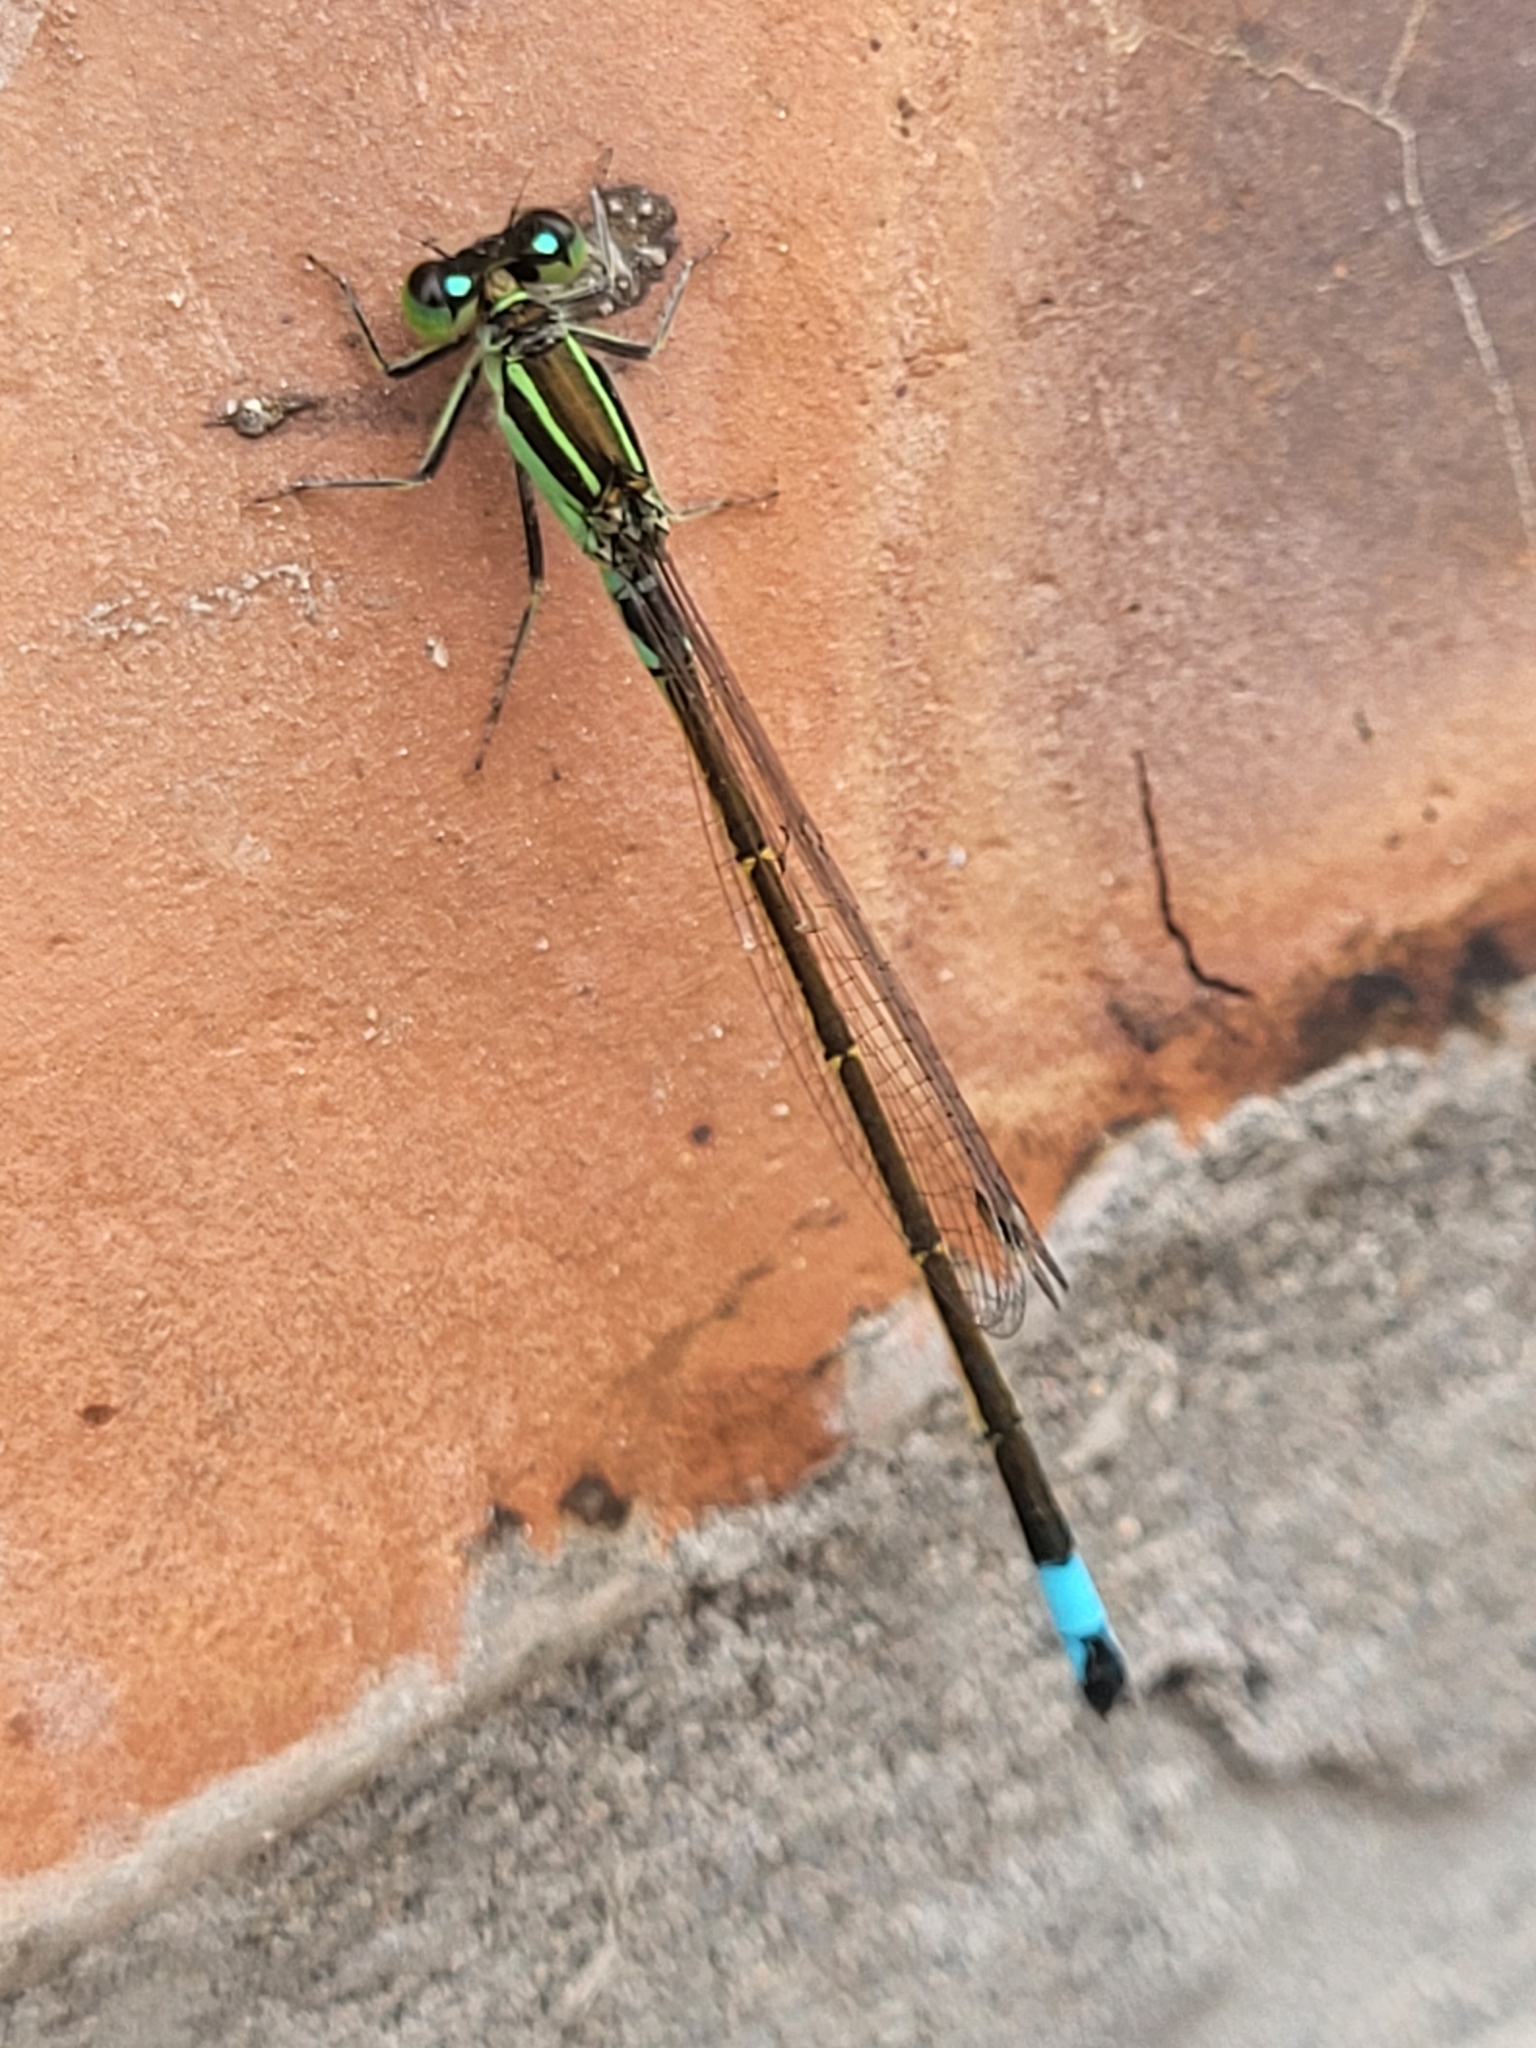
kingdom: Animalia
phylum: Arthropoda
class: Insecta
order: Odonata
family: Coenagrionidae
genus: Ischnura
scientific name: Ischnura senegalensis
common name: Tropical bluetail
